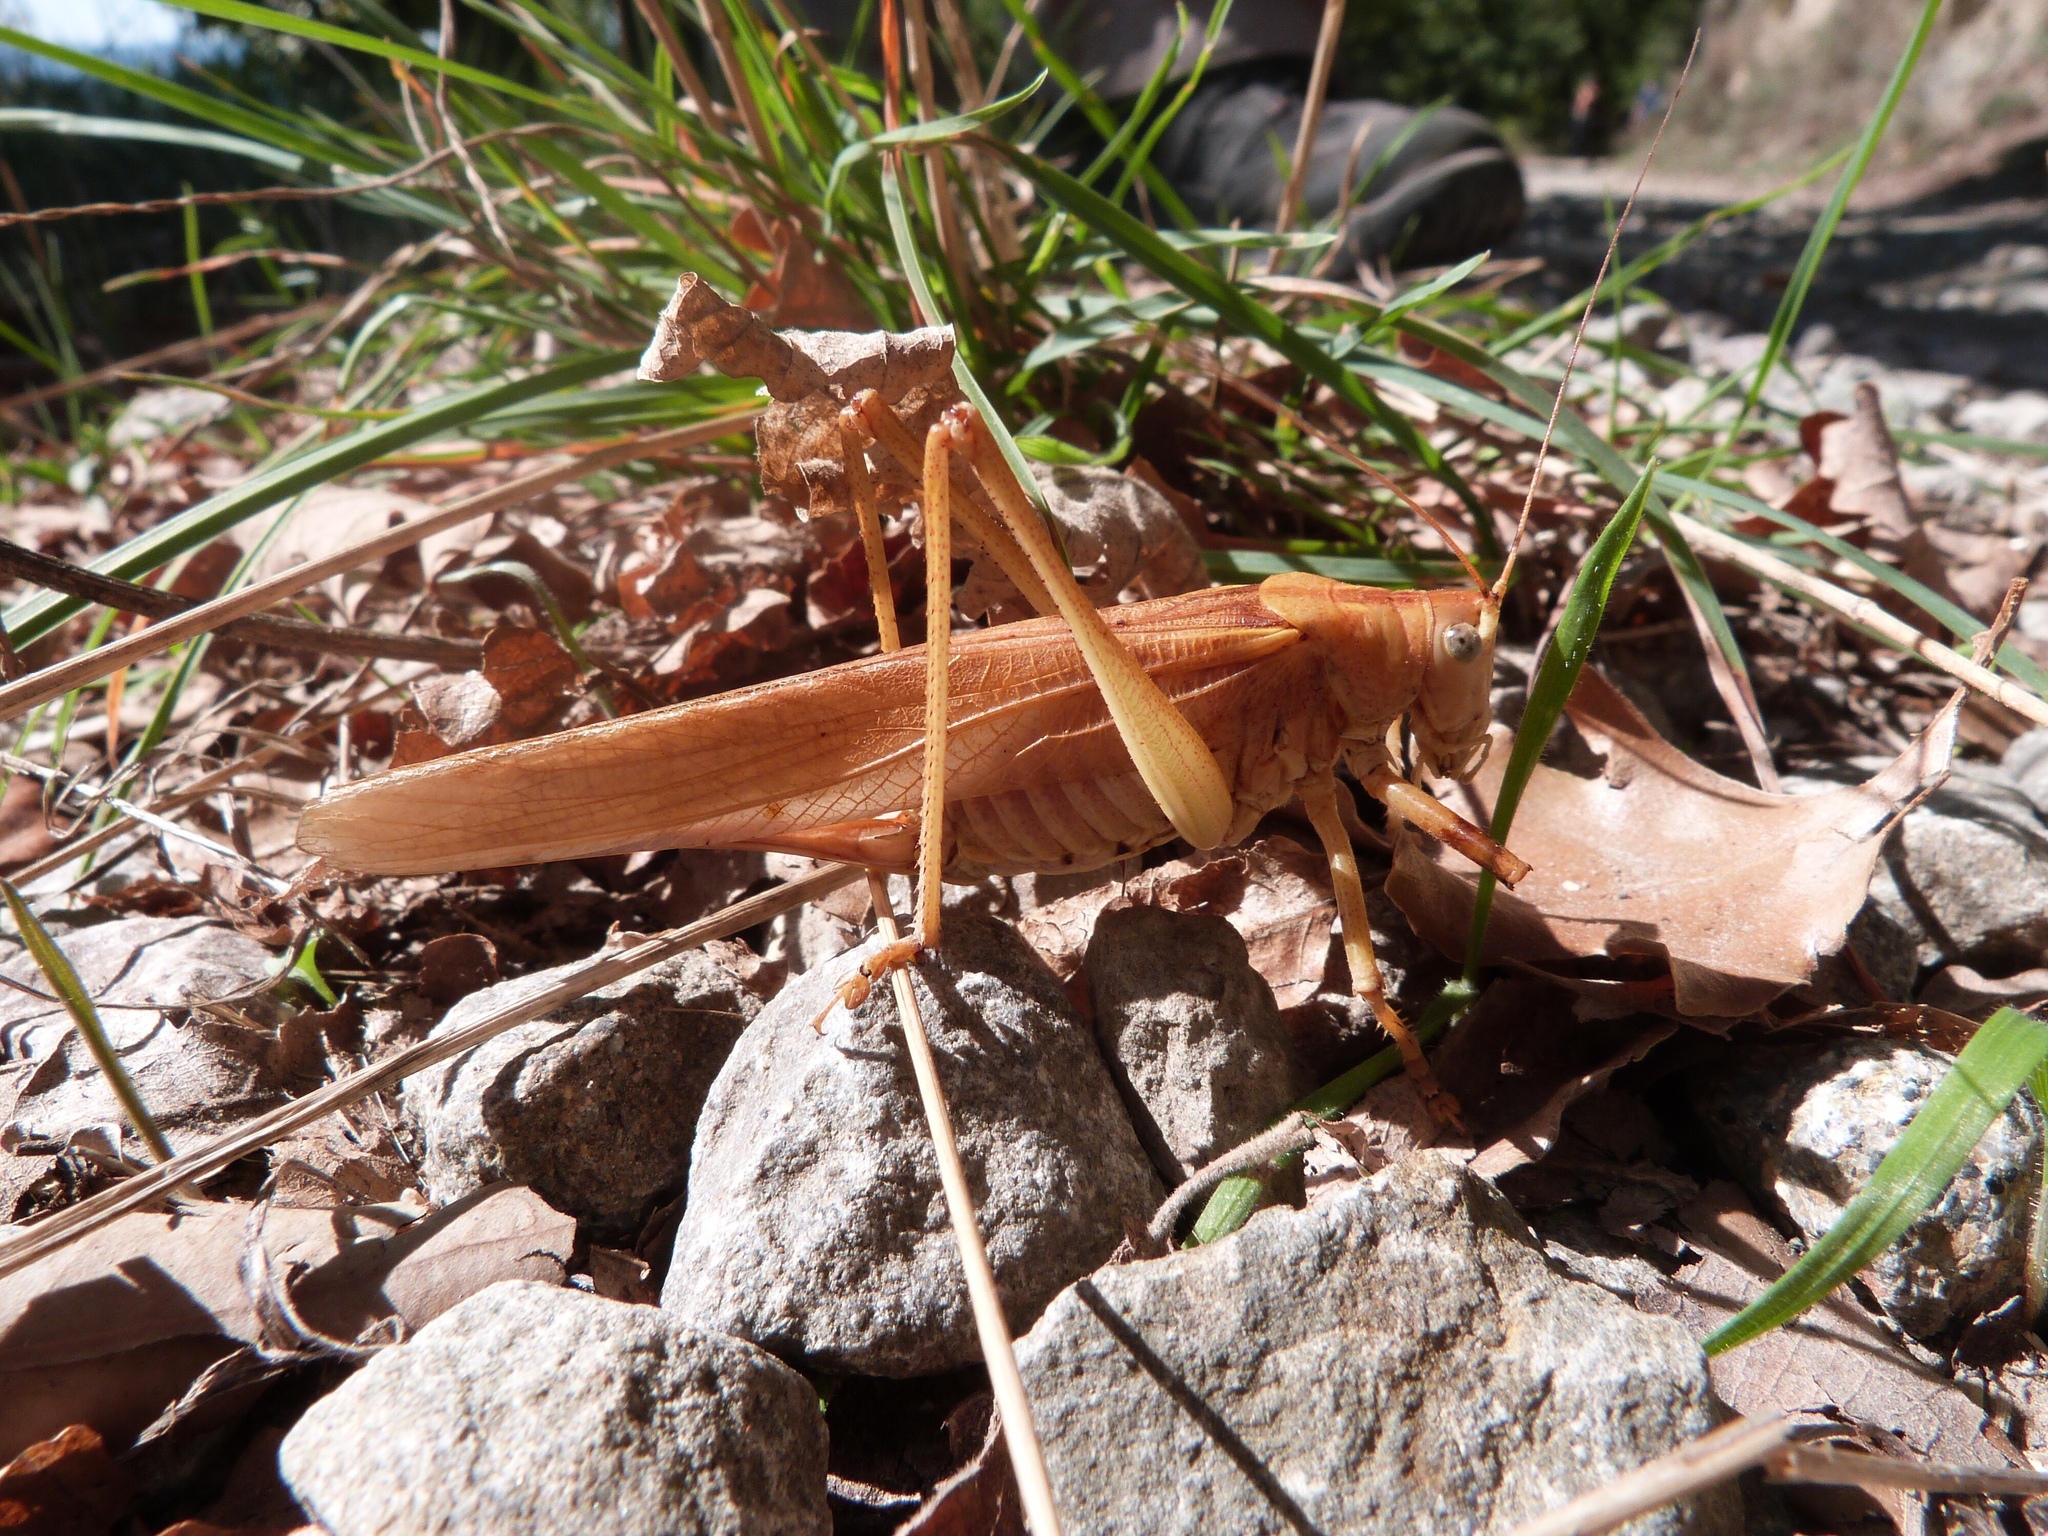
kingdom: Animalia
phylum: Arthropoda
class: Insecta
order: Orthoptera
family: Tettigoniidae
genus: Tettigonia
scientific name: Tettigonia viridissima
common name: Great green bush-cricket
